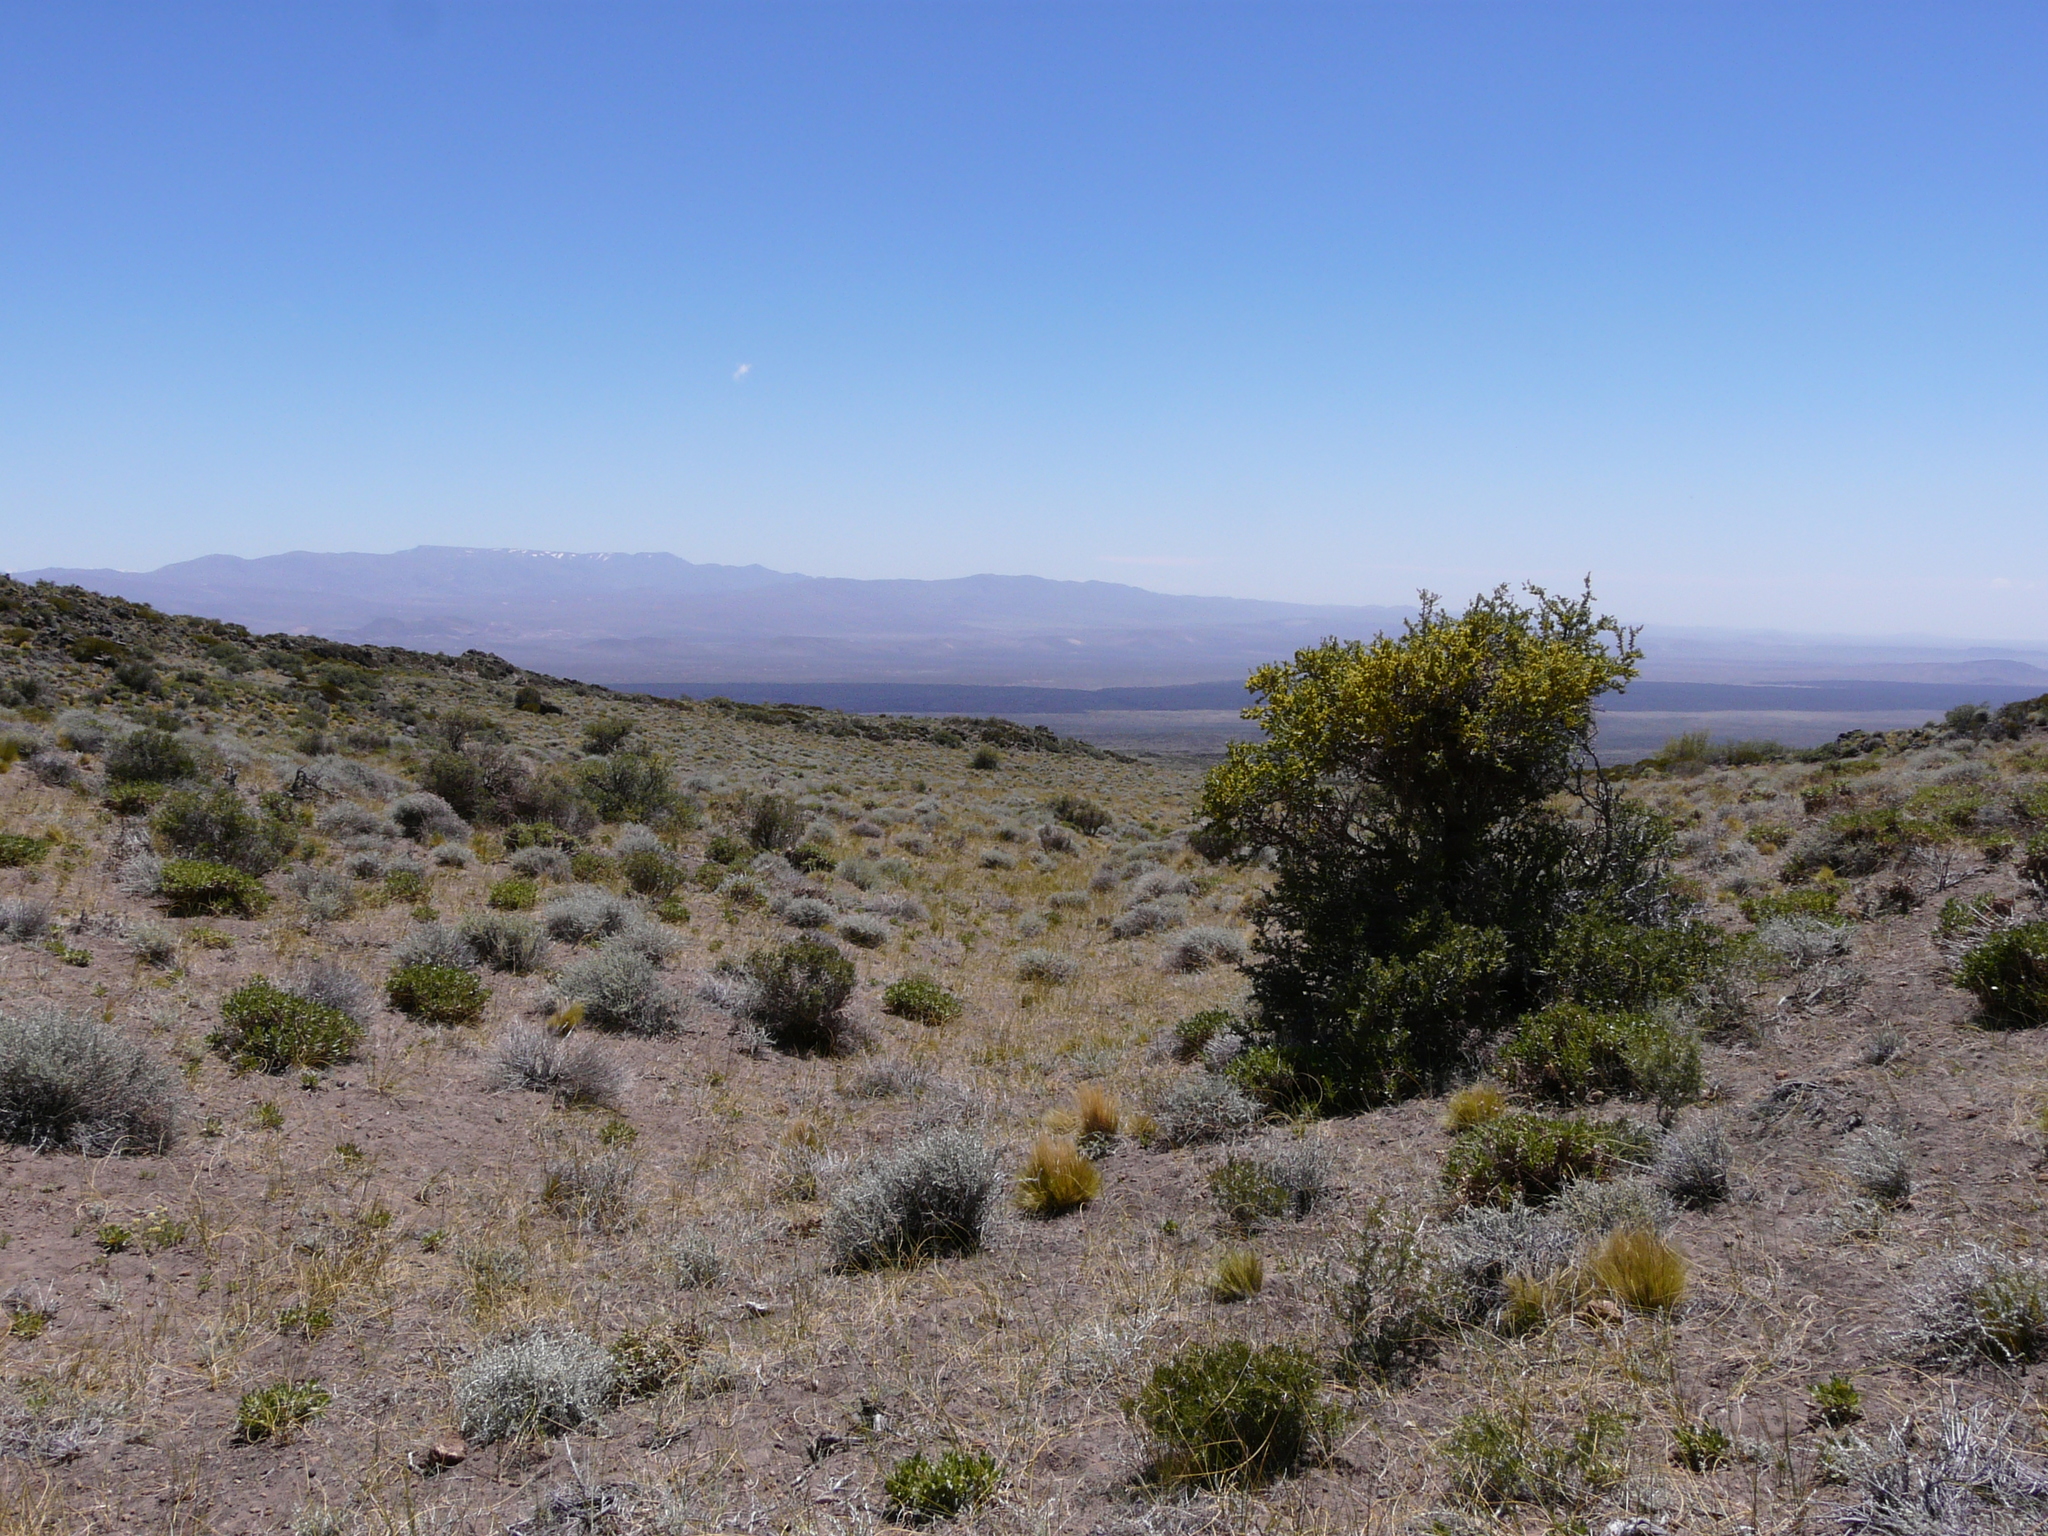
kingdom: Plantae
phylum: Tracheophyta
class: Magnoliopsida
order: Sapindales
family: Anacardiaceae
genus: Schinus
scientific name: Schinus odonellii
